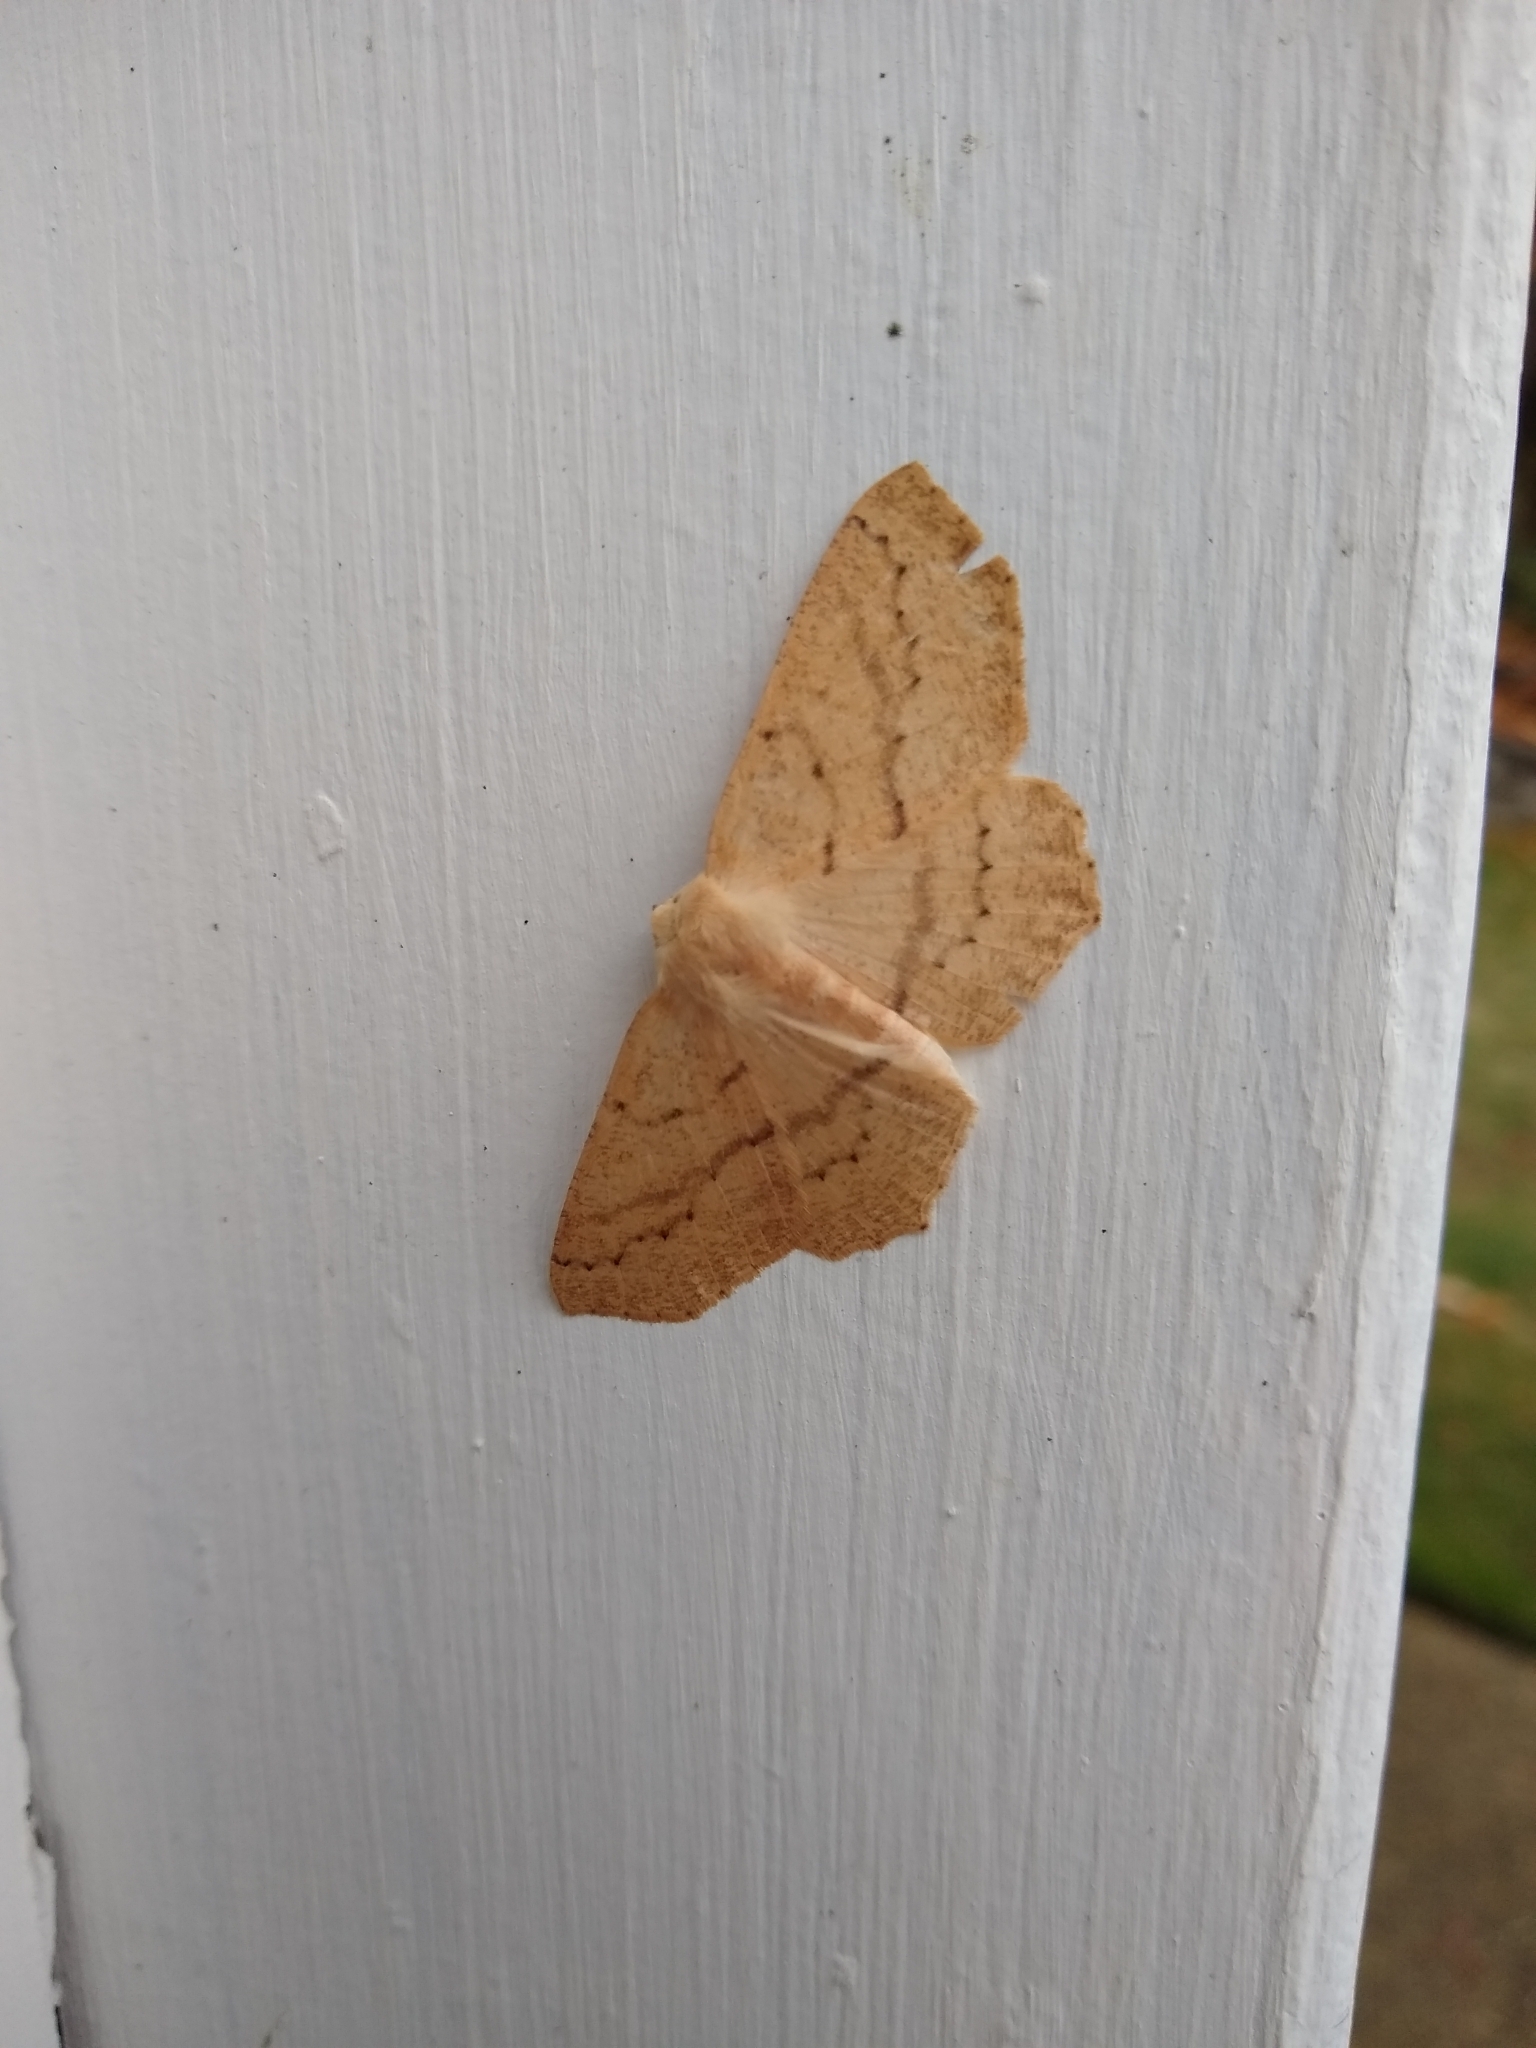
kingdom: Animalia
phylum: Arthropoda
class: Insecta
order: Lepidoptera
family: Geometridae
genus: Sabulodes
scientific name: Sabulodes aegrotata
